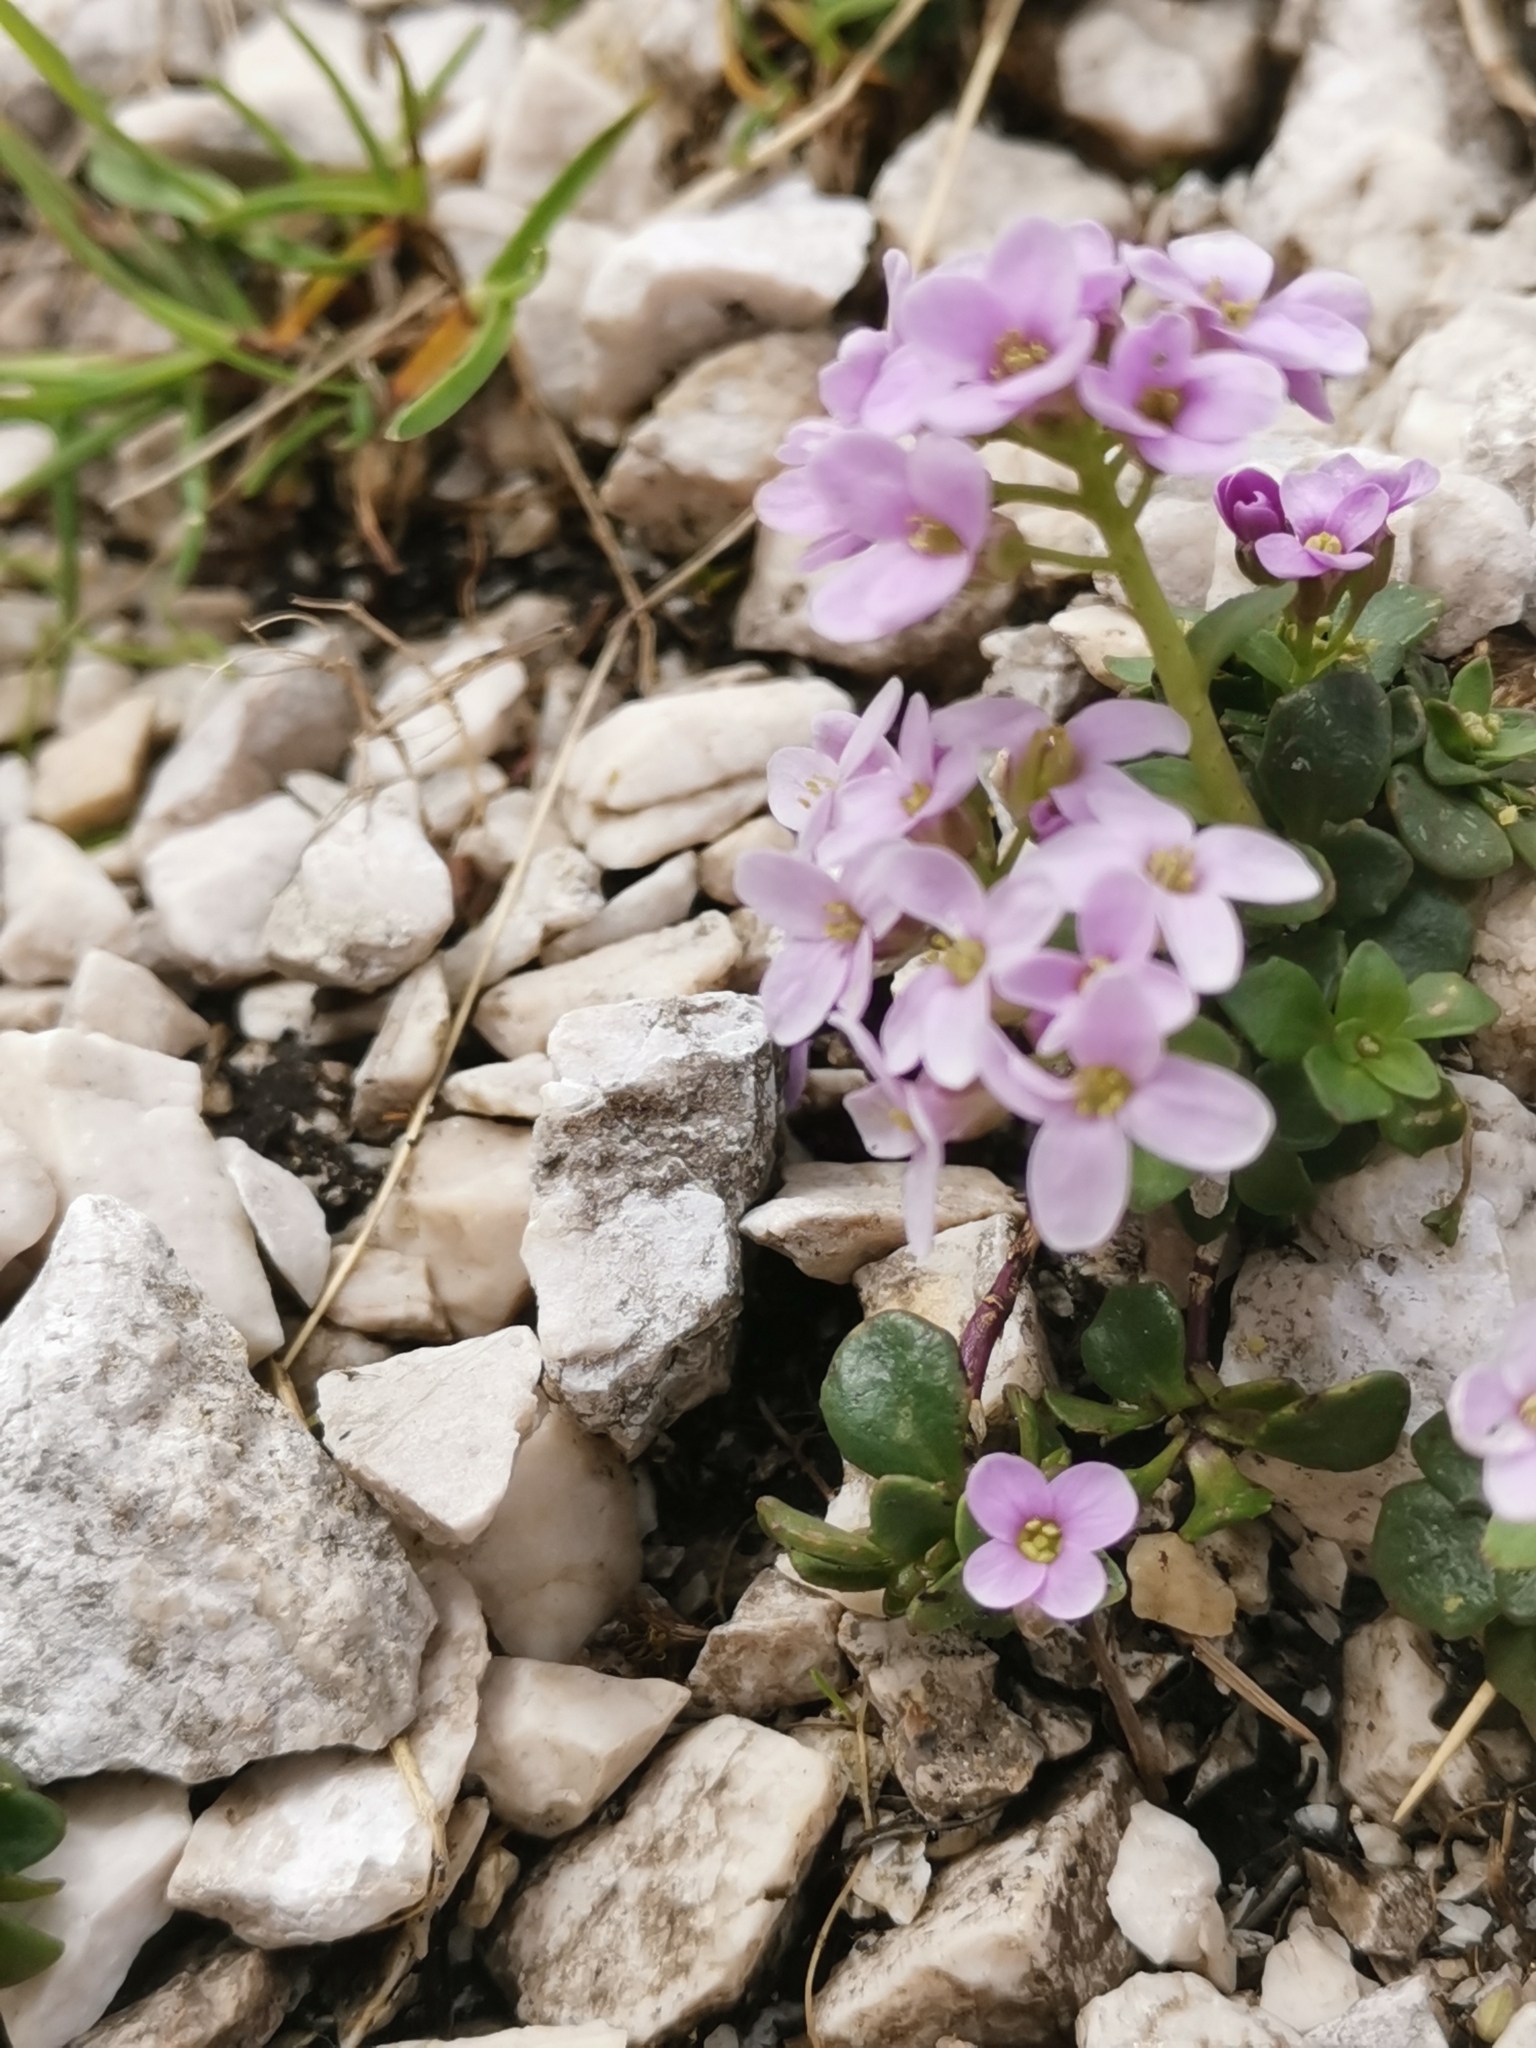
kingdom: Plantae
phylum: Tracheophyta
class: Magnoliopsida
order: Brassicales
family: Brassicaceae
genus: Noccaea
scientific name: Noccaea rotundifolia
